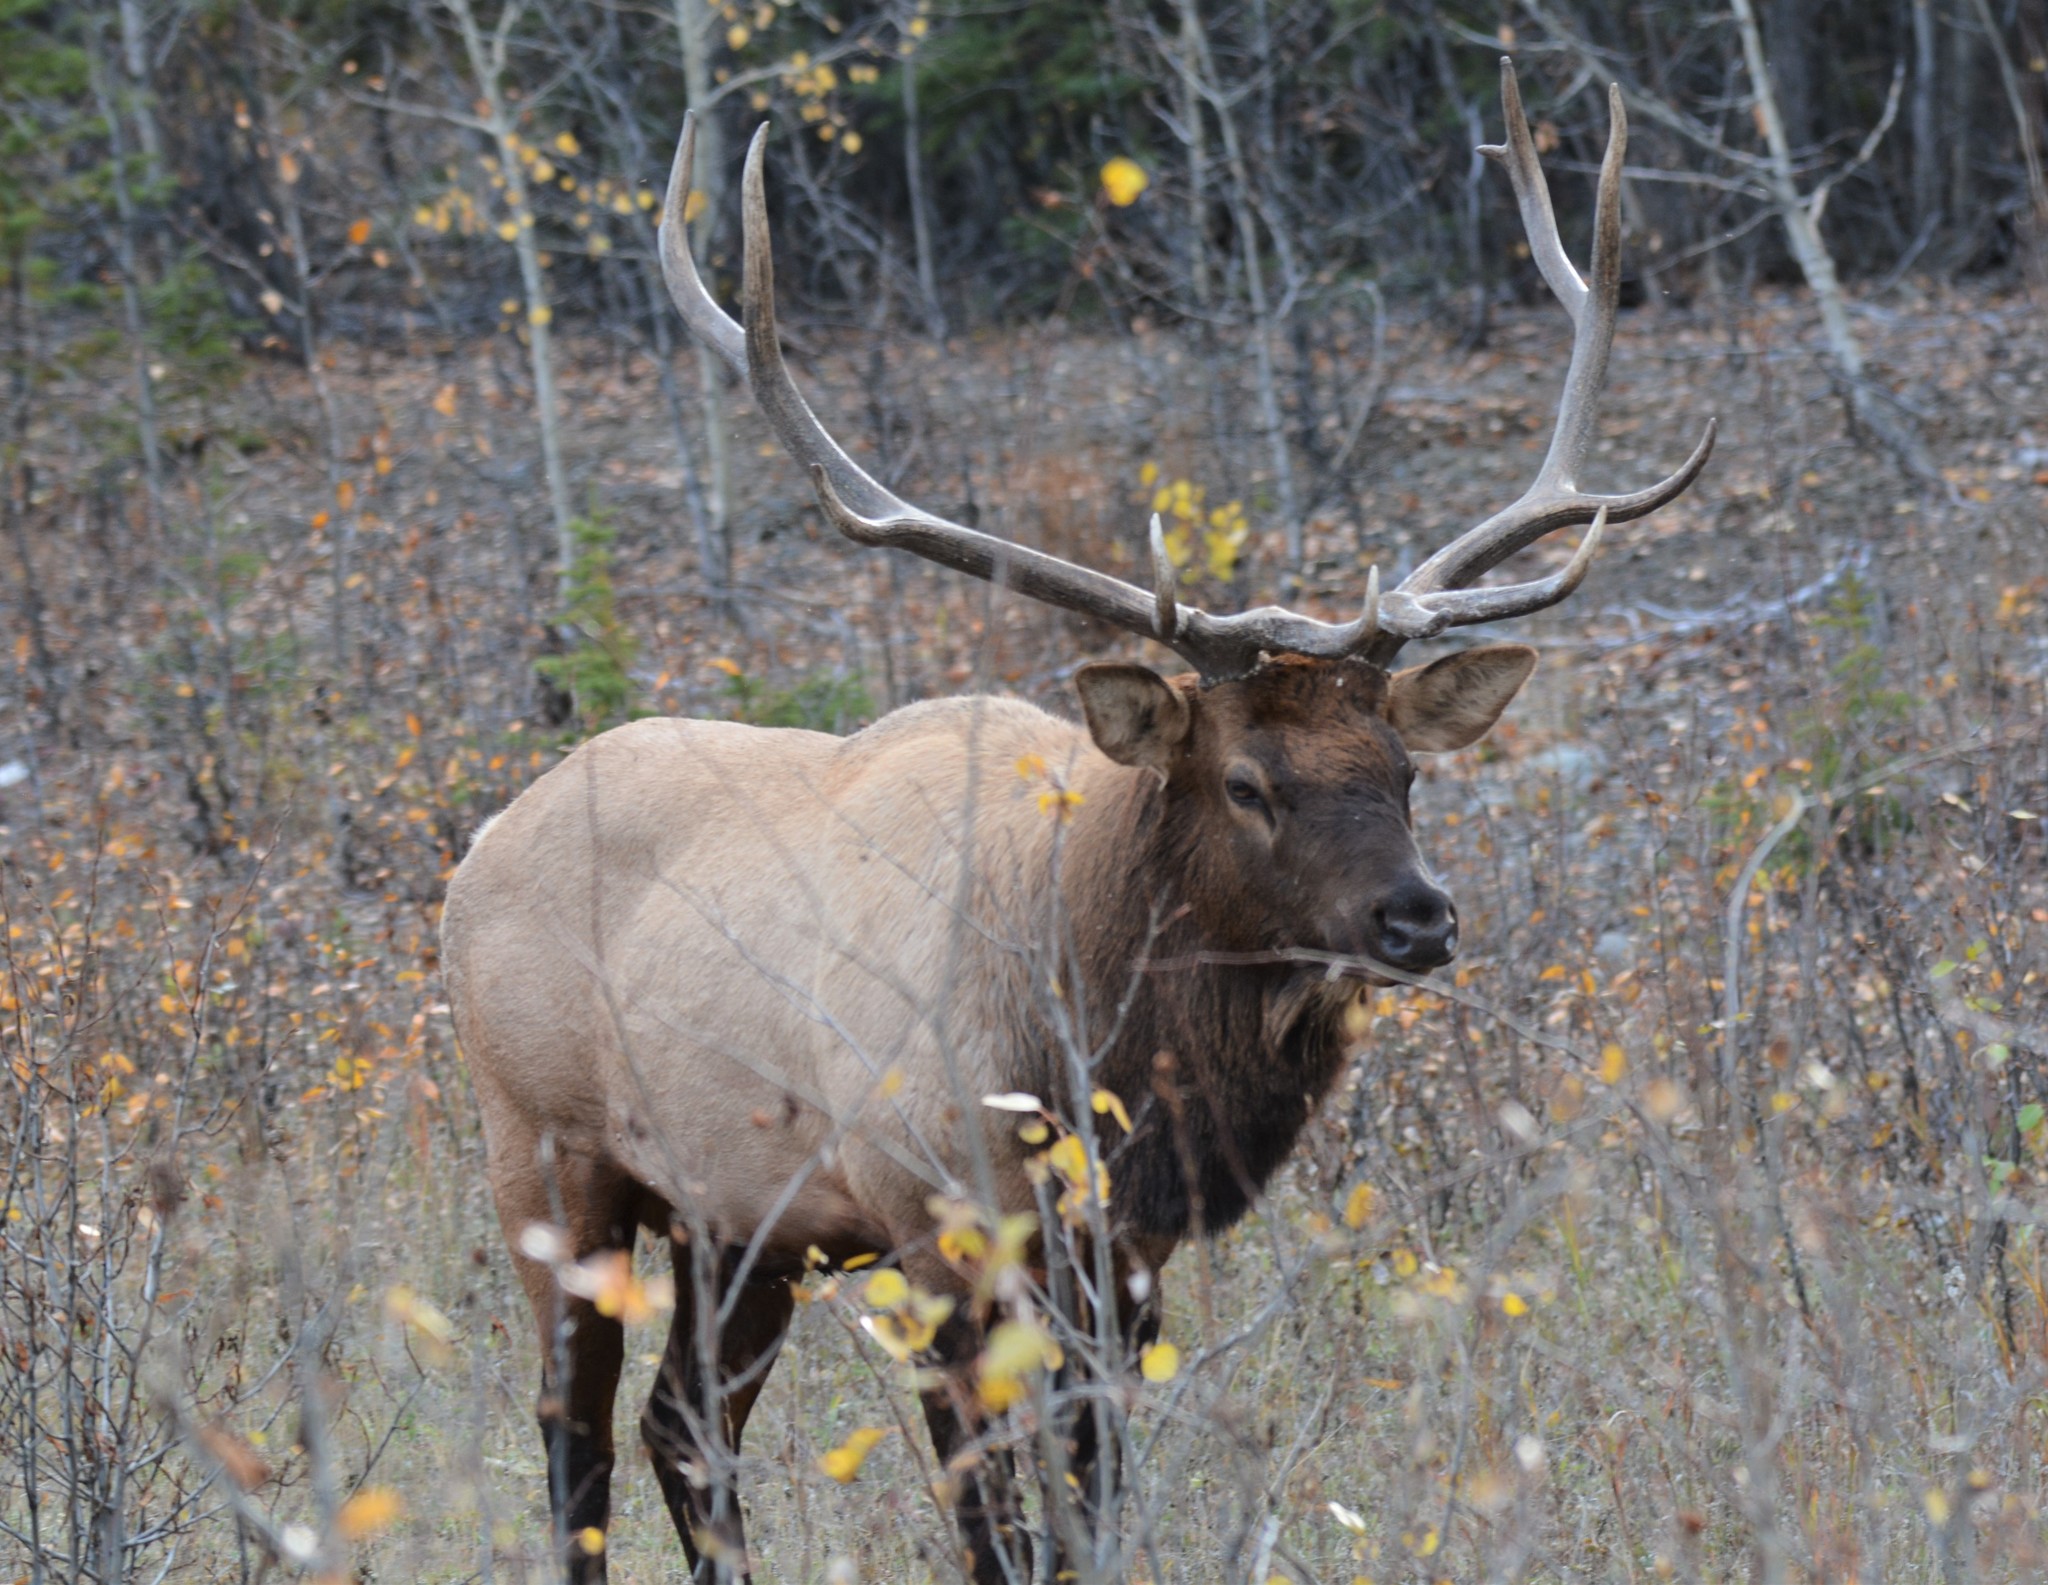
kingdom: Animalia
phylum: Chordata
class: Mammalia
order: Artiodactyla
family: Cervidae
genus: Cervus
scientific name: Cervus elaphus
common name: Red deer
